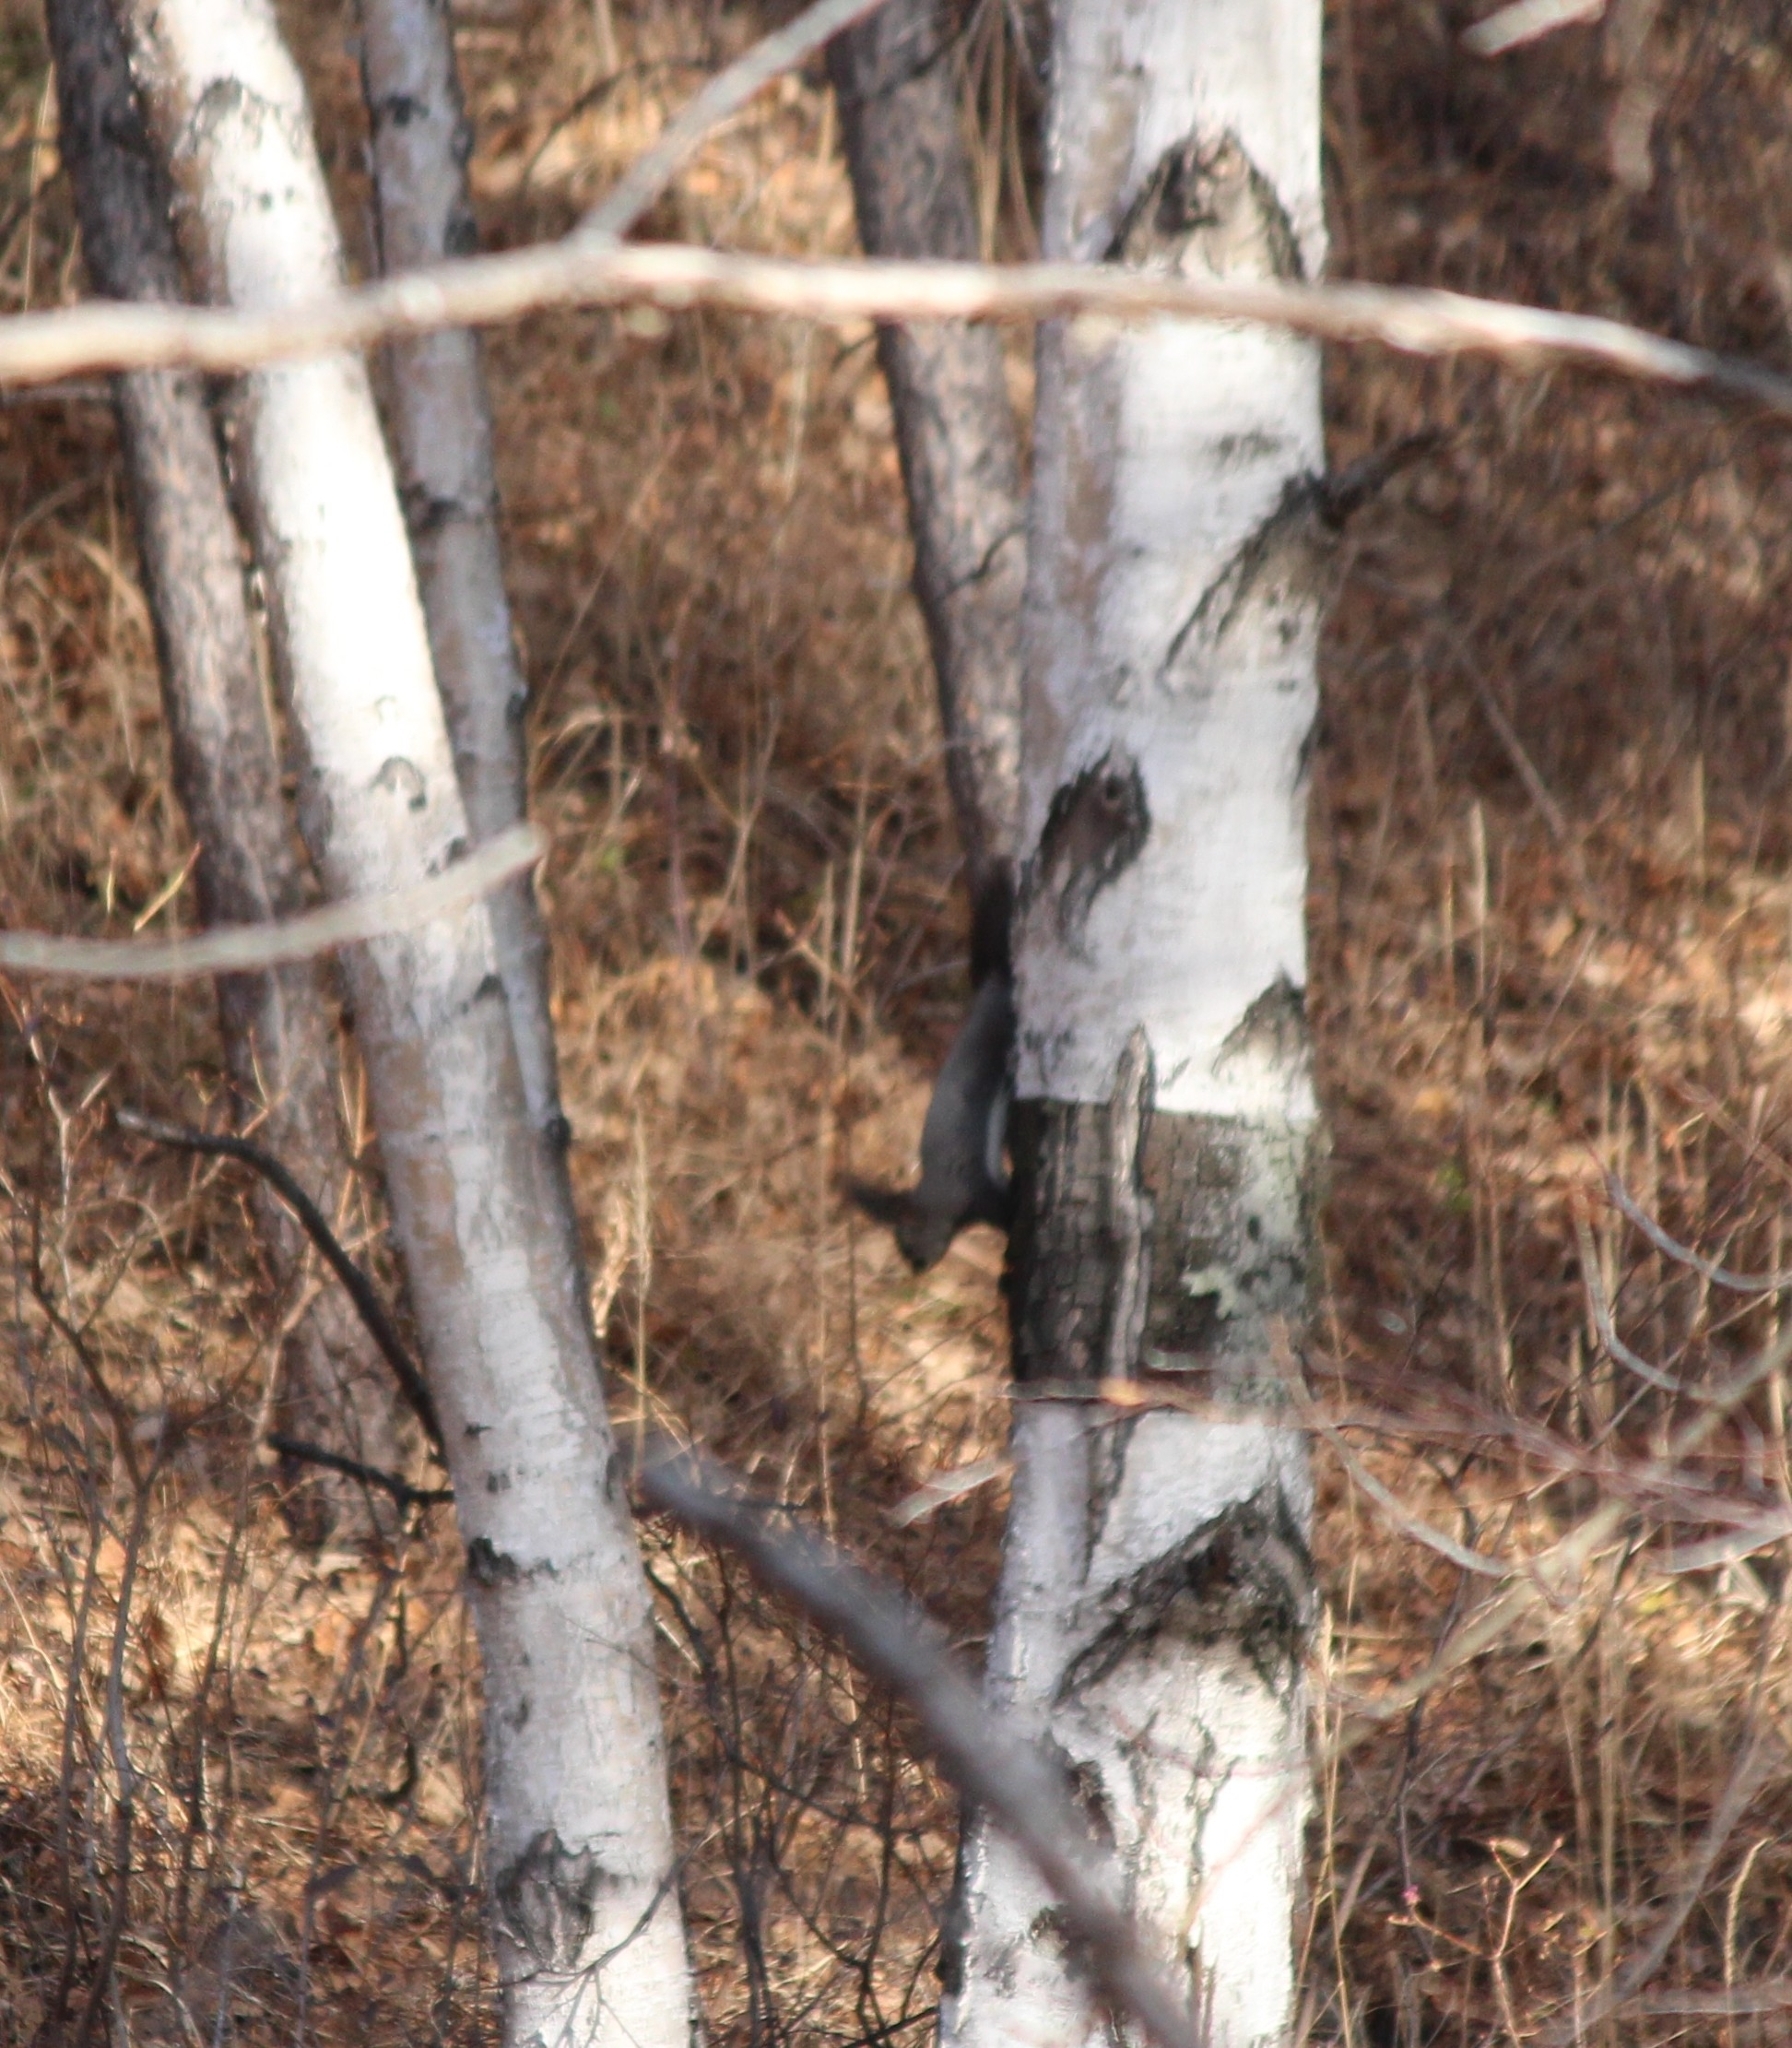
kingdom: Animalia
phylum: Chordata
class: Mammalia
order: Rodentia
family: Sciuridae
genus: Sciurus
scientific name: Sciurus vulgaris
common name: Eurasian red squirrel
